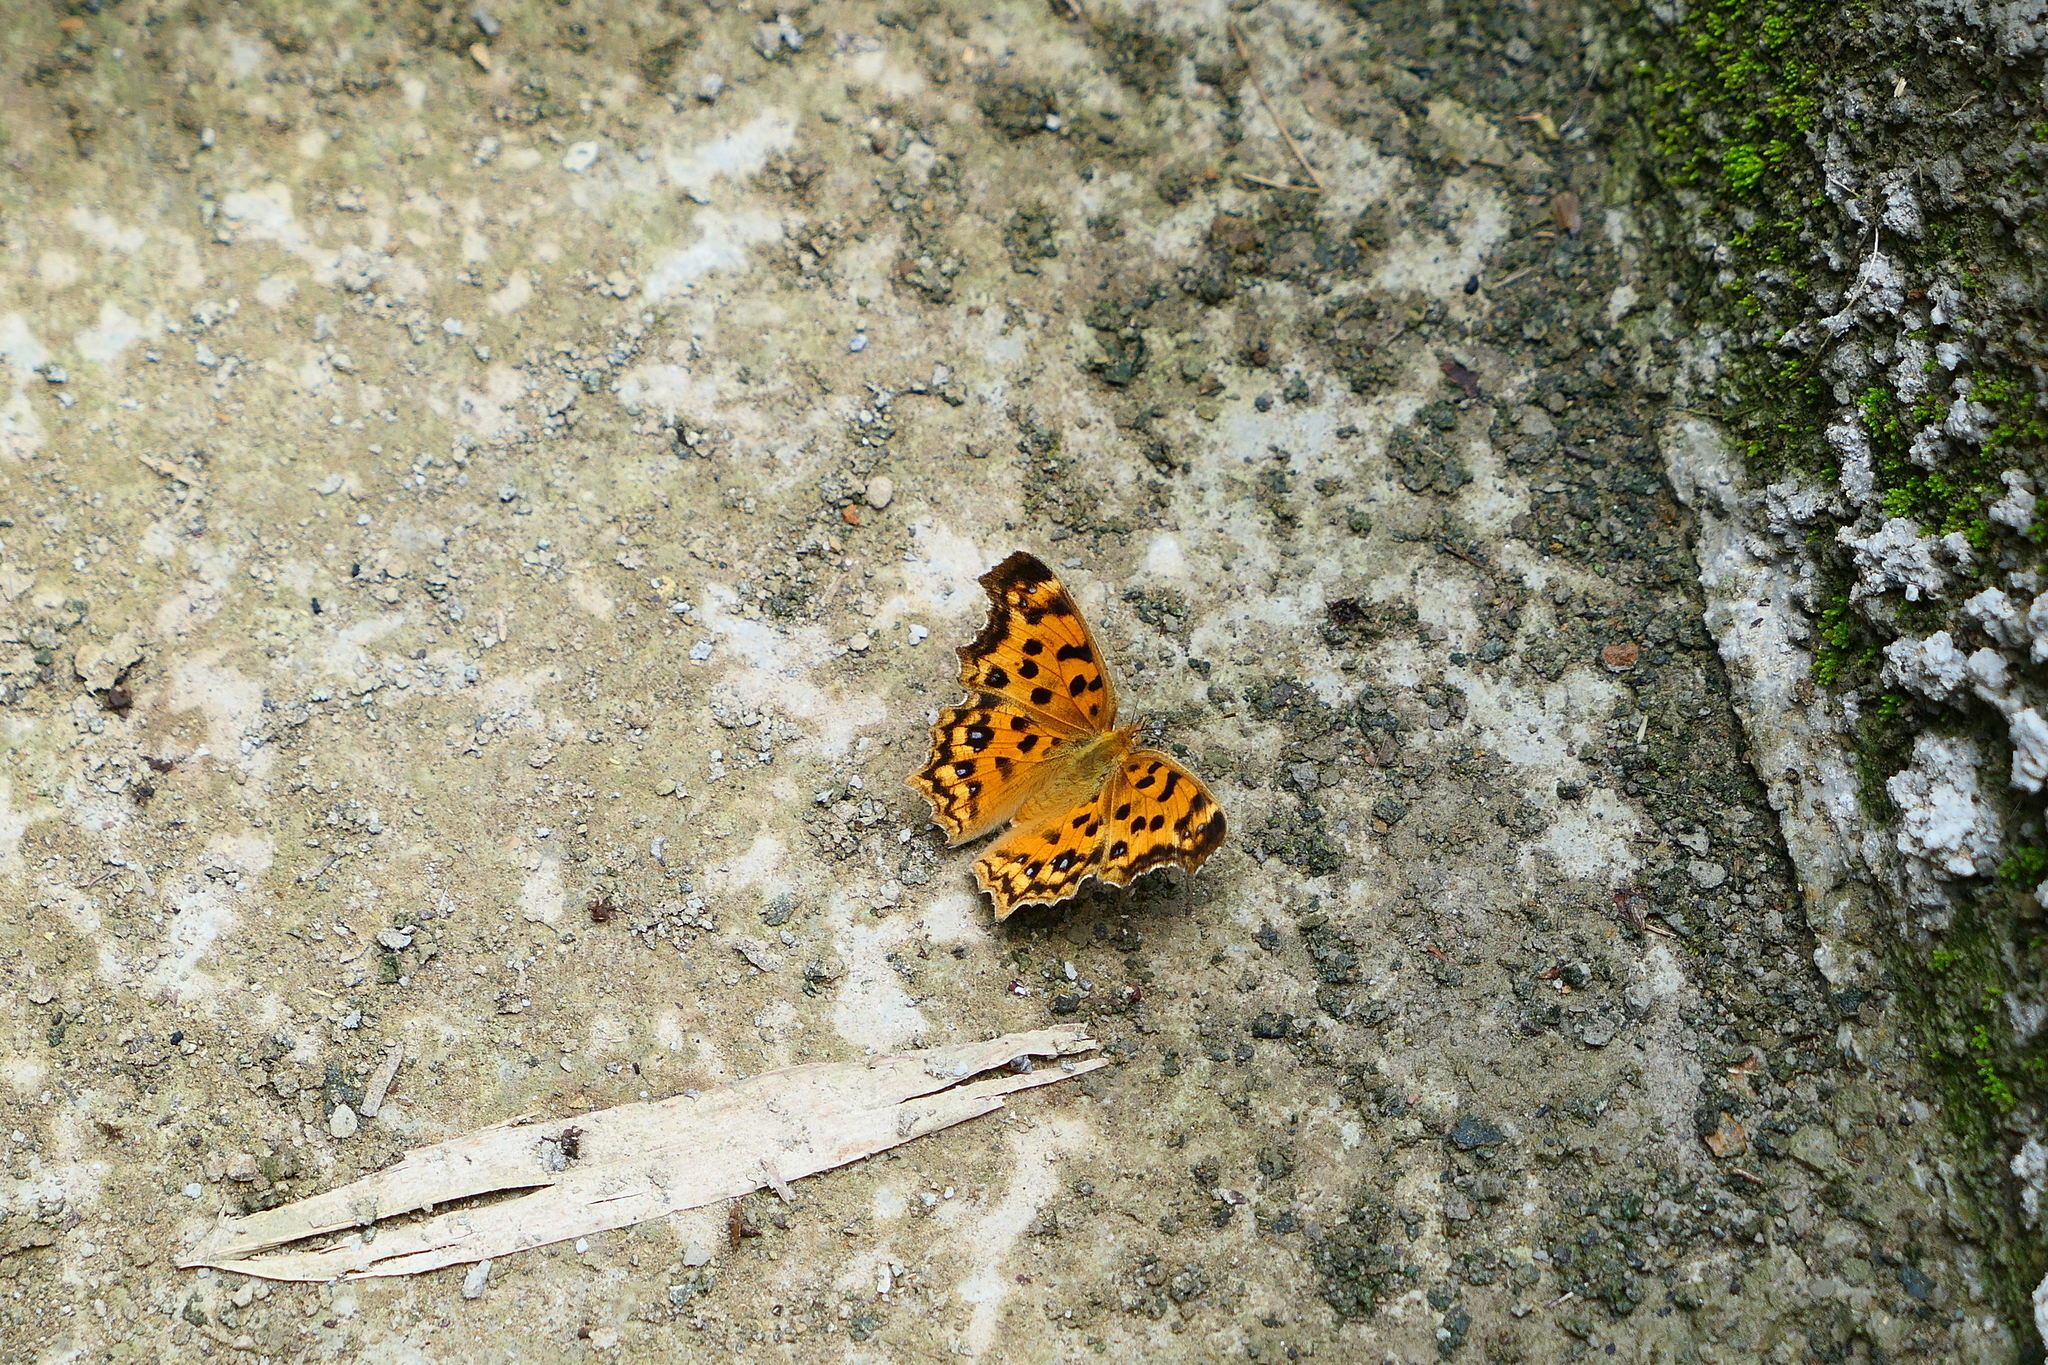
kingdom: Animalia
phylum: Arthropoda
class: Insecta
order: Lepidoptera
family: Nymphalidae
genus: Polygonia
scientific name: Polygonia c-aureum
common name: Asian comma
